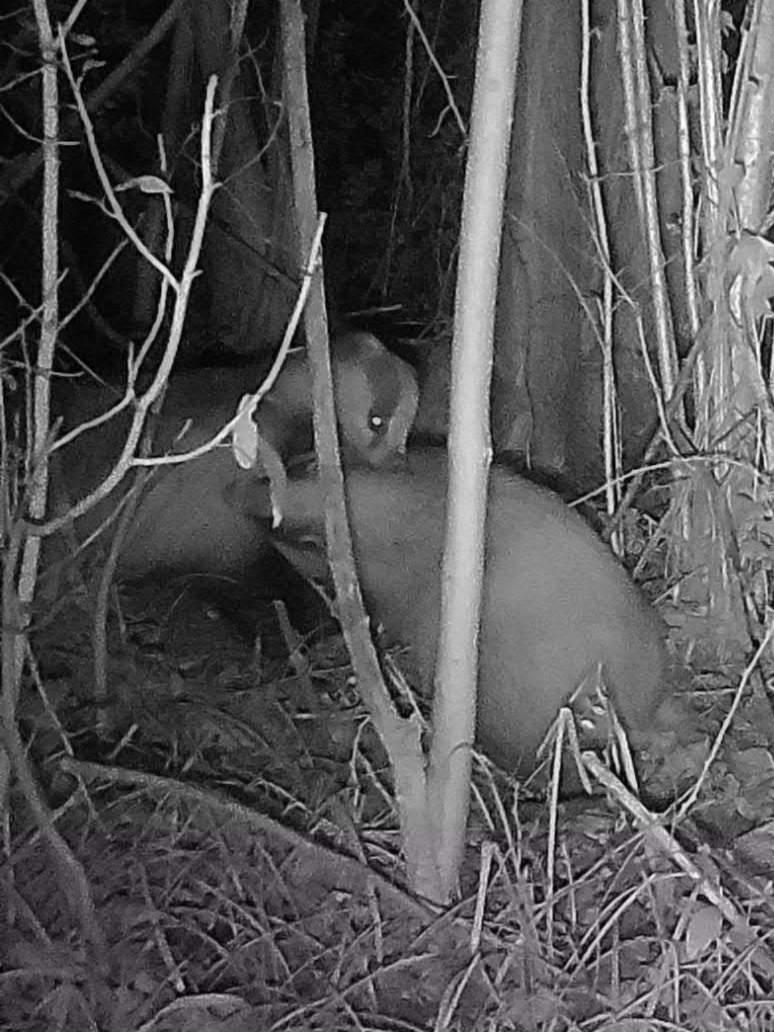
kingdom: Animalia
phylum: Chordata
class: Mammalia
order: Carnivora
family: Mustelidae
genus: Meles
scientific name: Meles meles
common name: Eurasian badger
